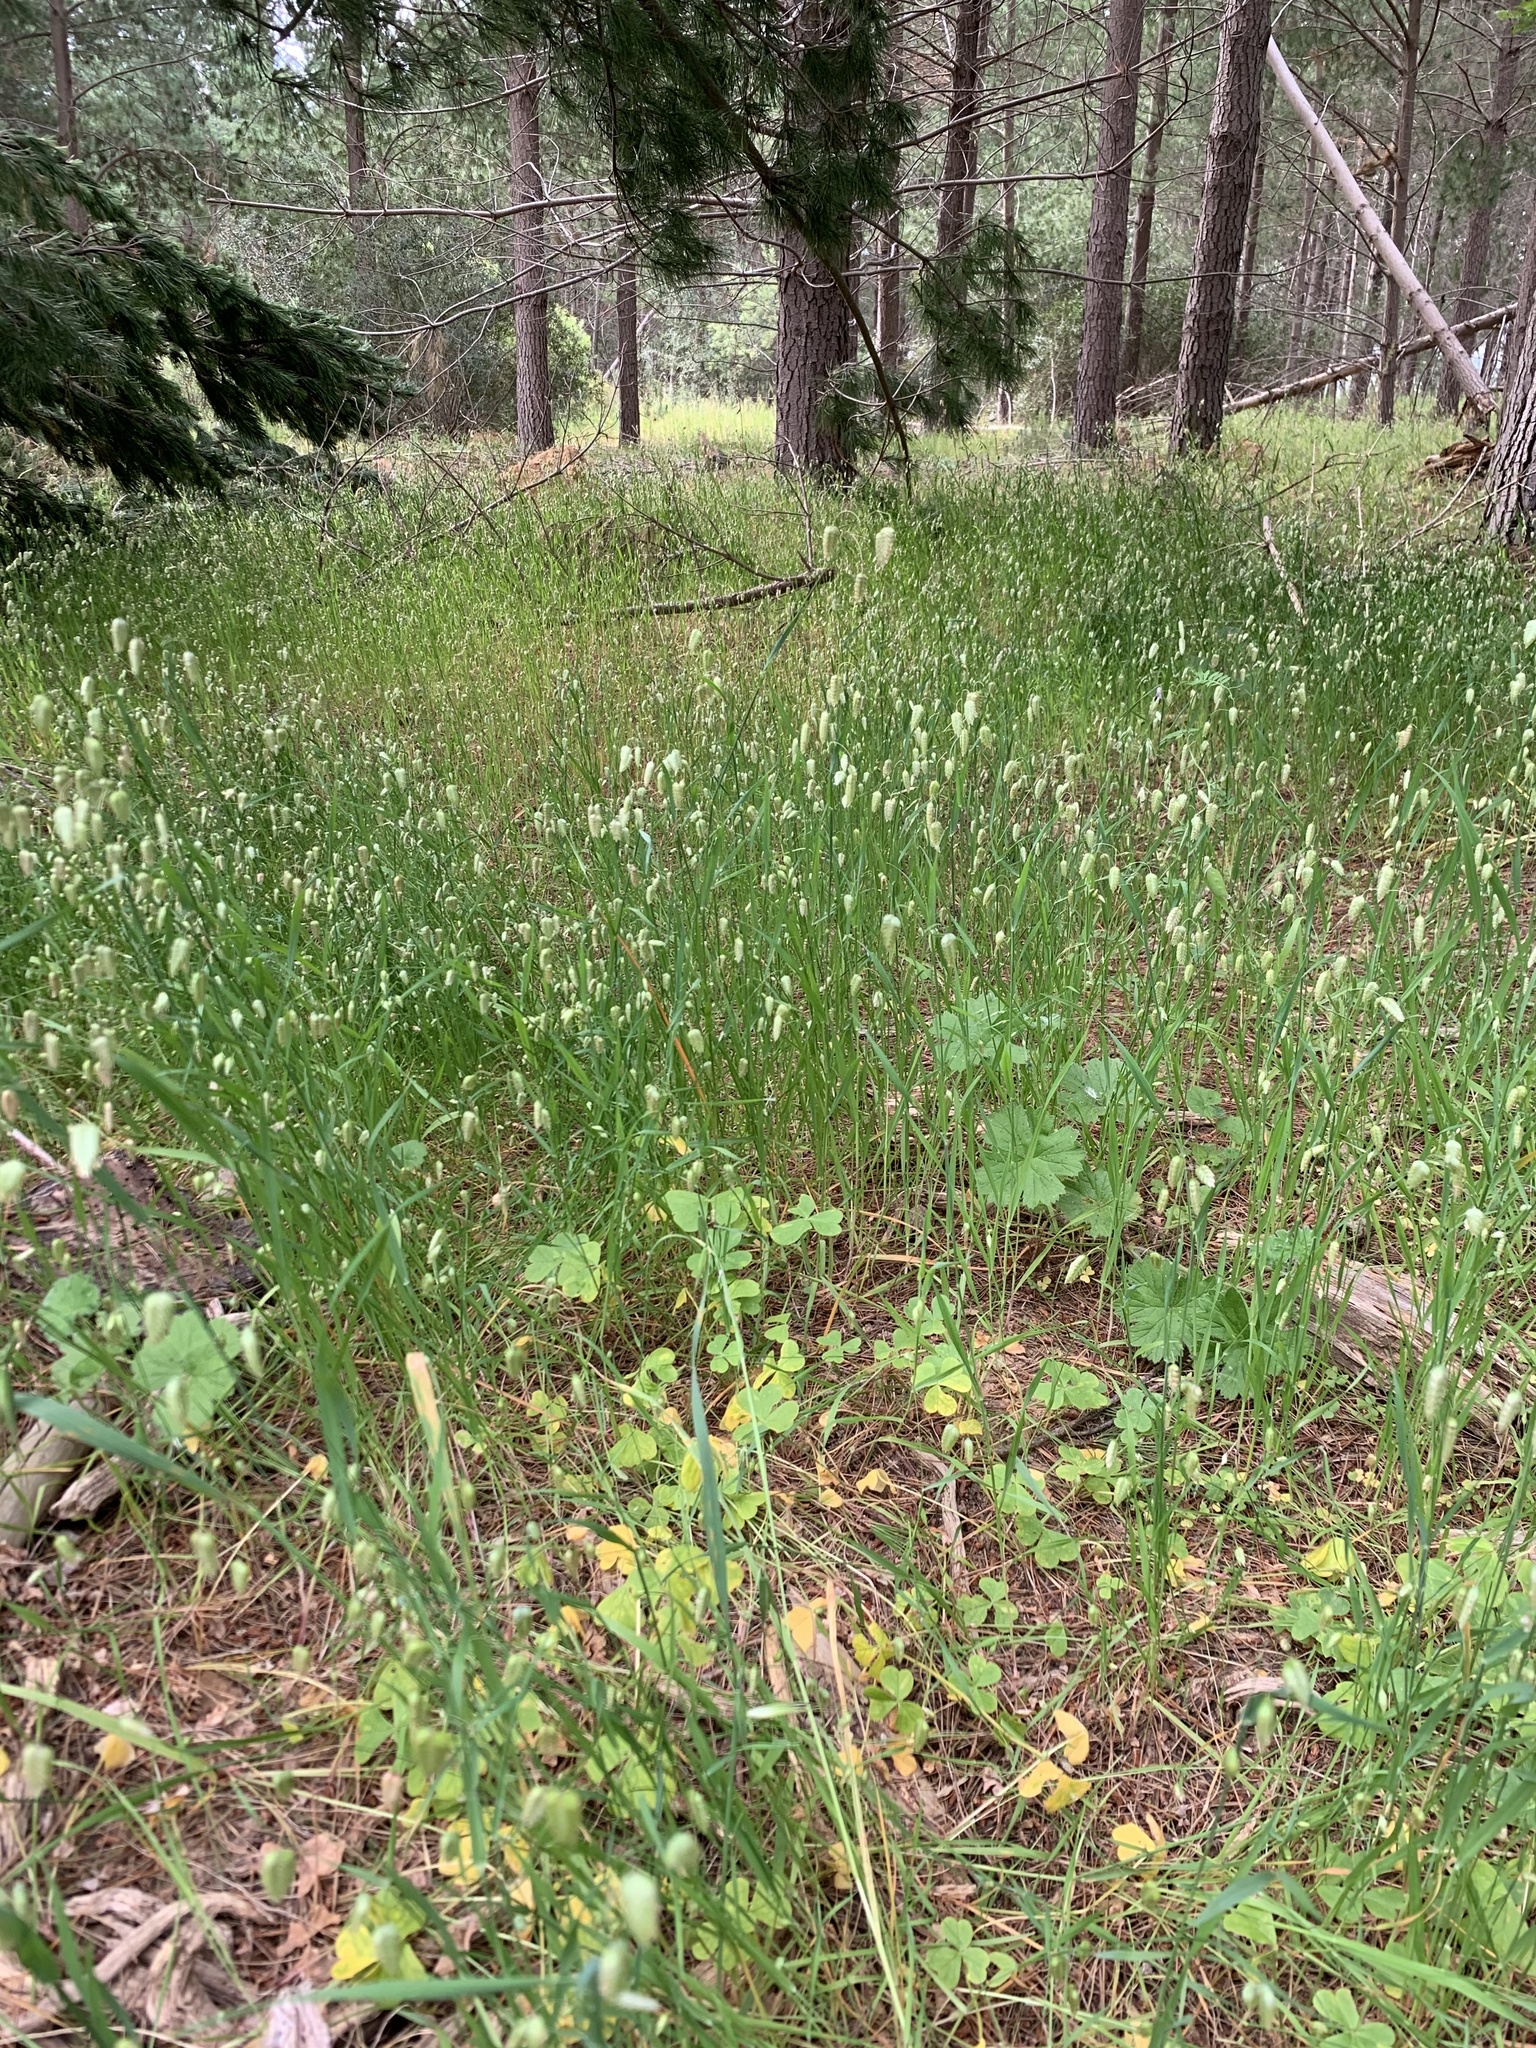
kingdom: Plantae
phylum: Tracheophyta
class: Liliopsida
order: Poales
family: Poaceae
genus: Briza
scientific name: Briza maxima
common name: Big quakinggrass
